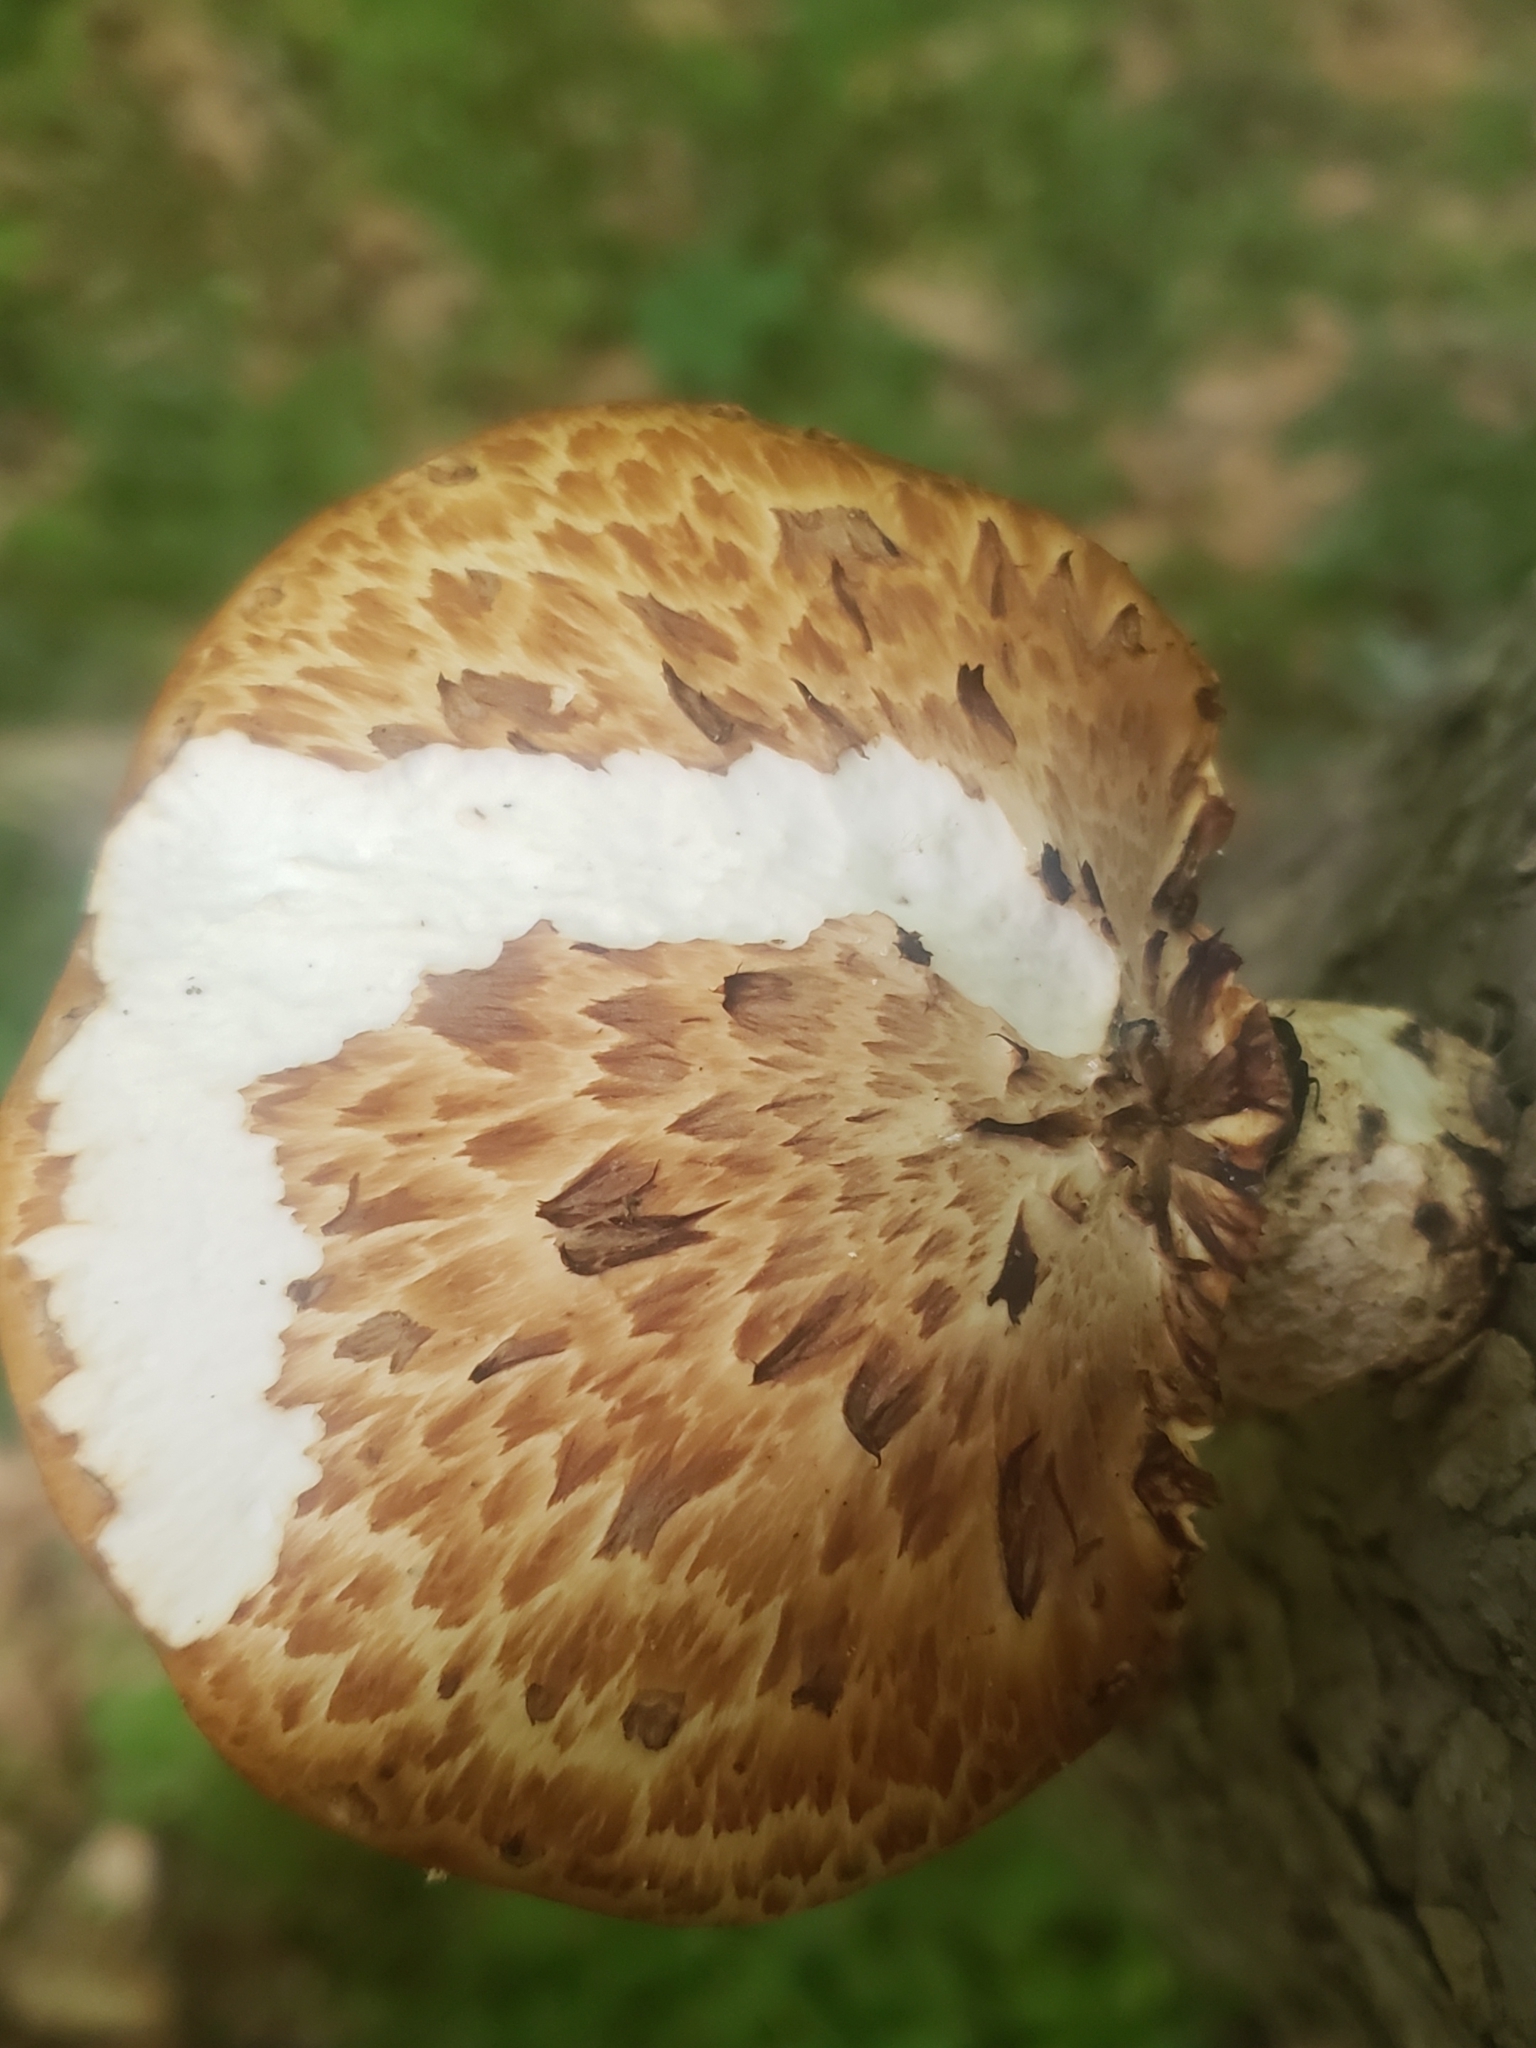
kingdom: Fungi
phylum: Basidiomycota
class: Agaricomycetes
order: Polyporales
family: Polyporaceae
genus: Cerioporus
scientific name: Cerioporus squamosus
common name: Dryad's saddle
